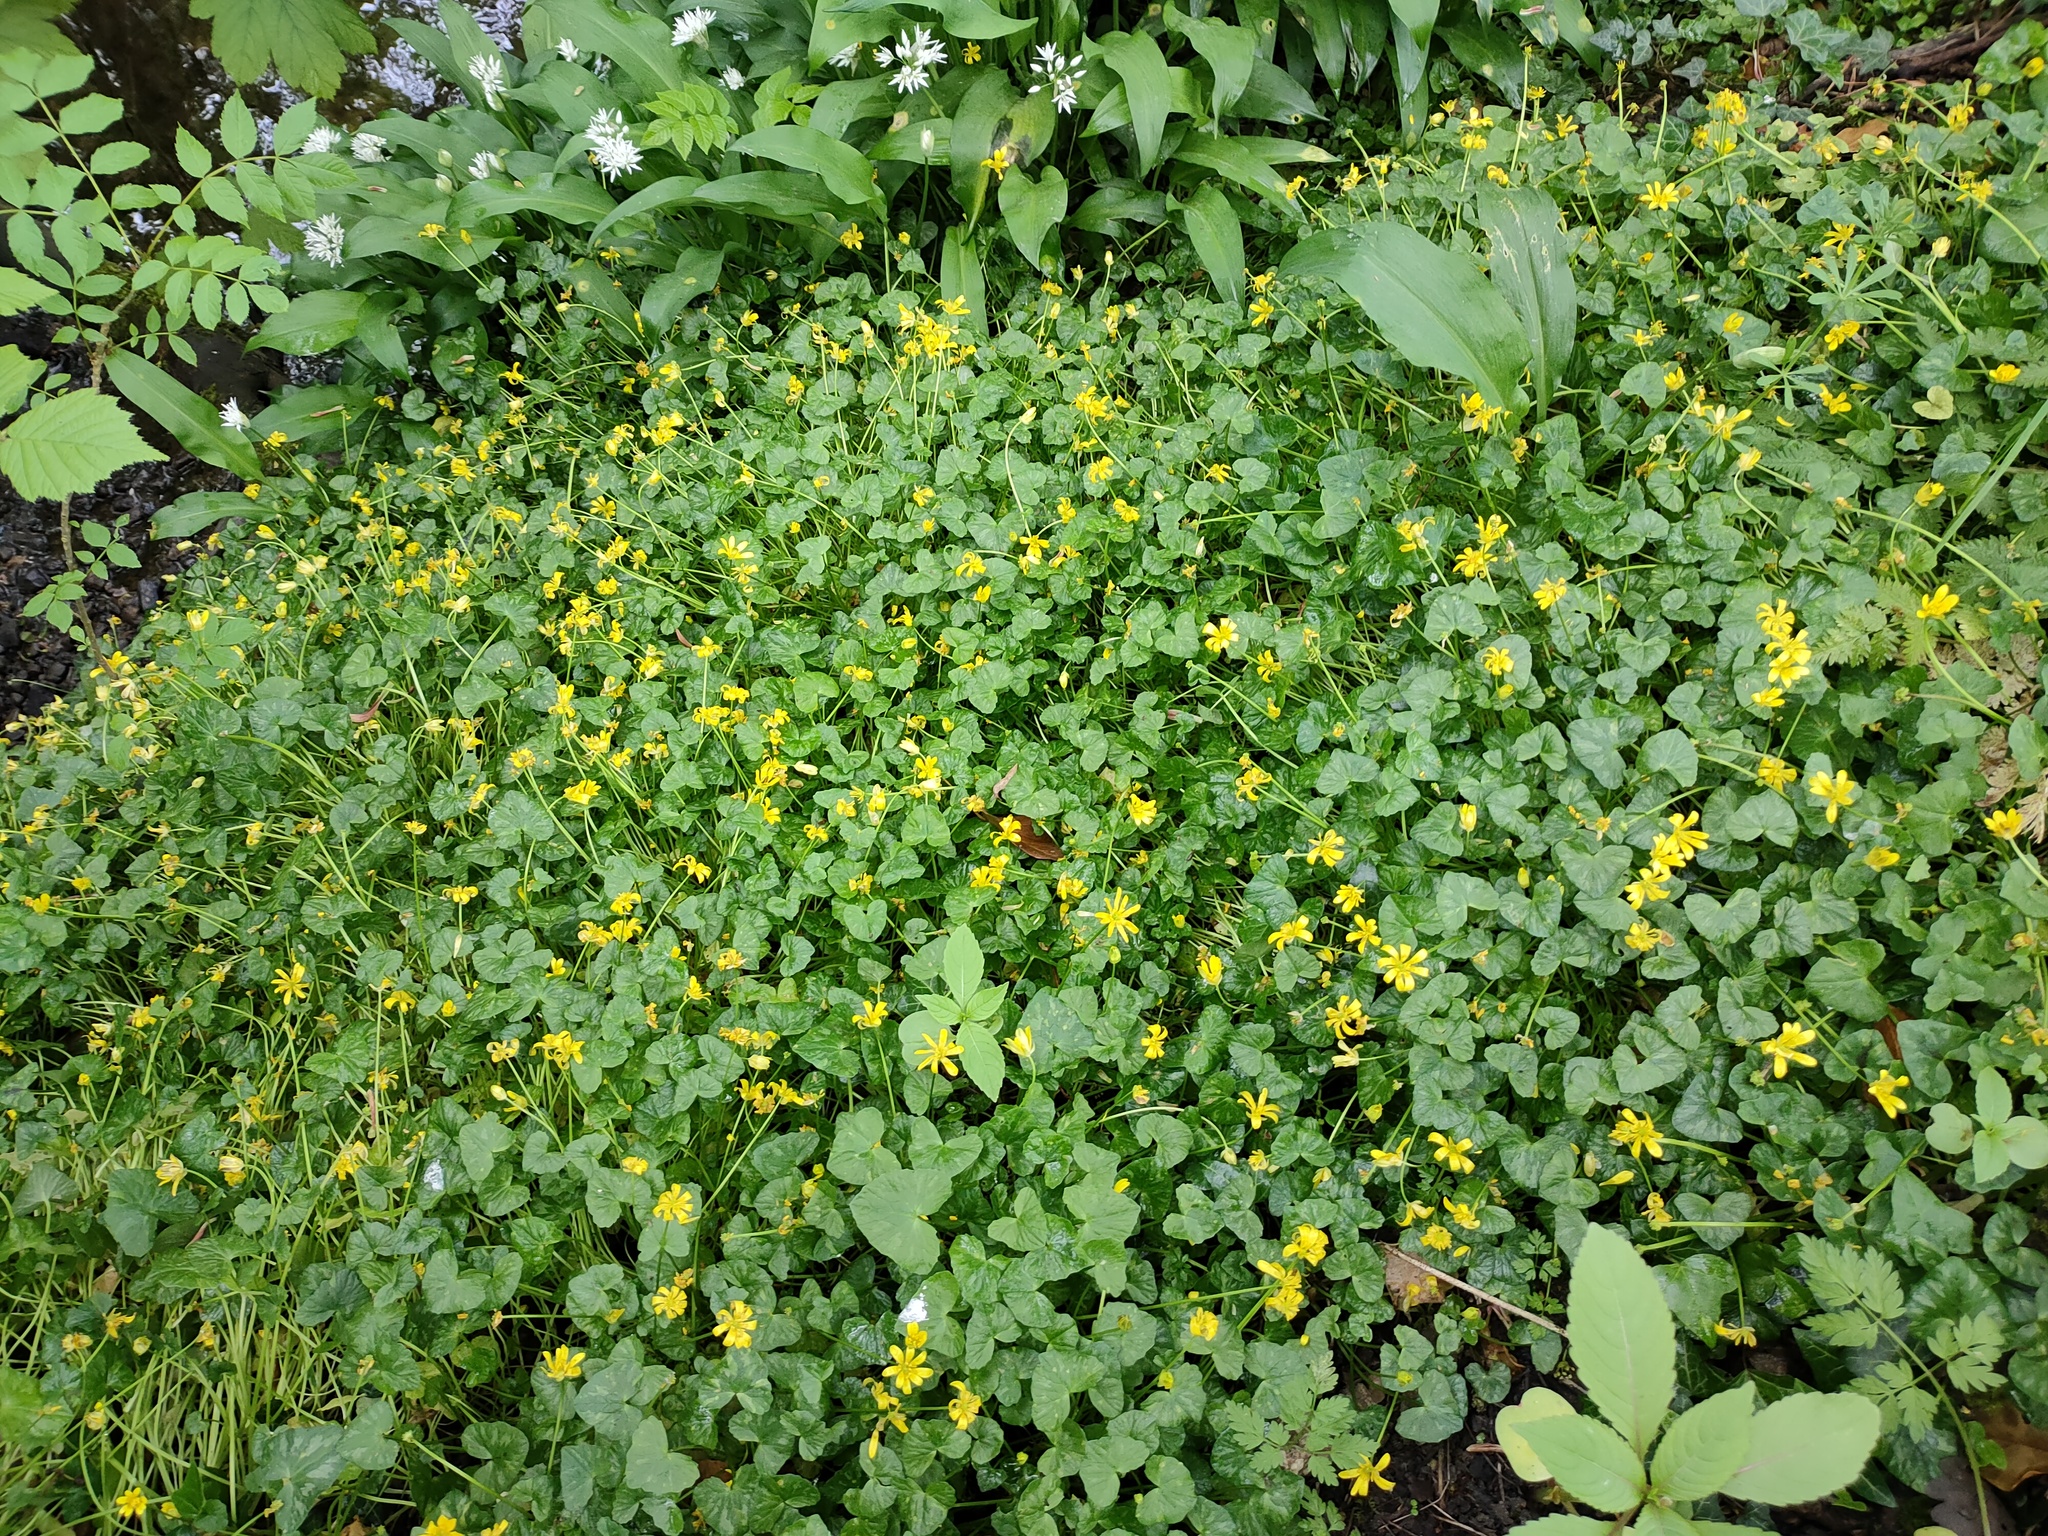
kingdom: Plantae
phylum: Tracheophyta
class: Magnoliopsida
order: Ranunculales
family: Ranunculaceae
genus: Ficaria
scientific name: Ficaria verna
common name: Lesser celandine
